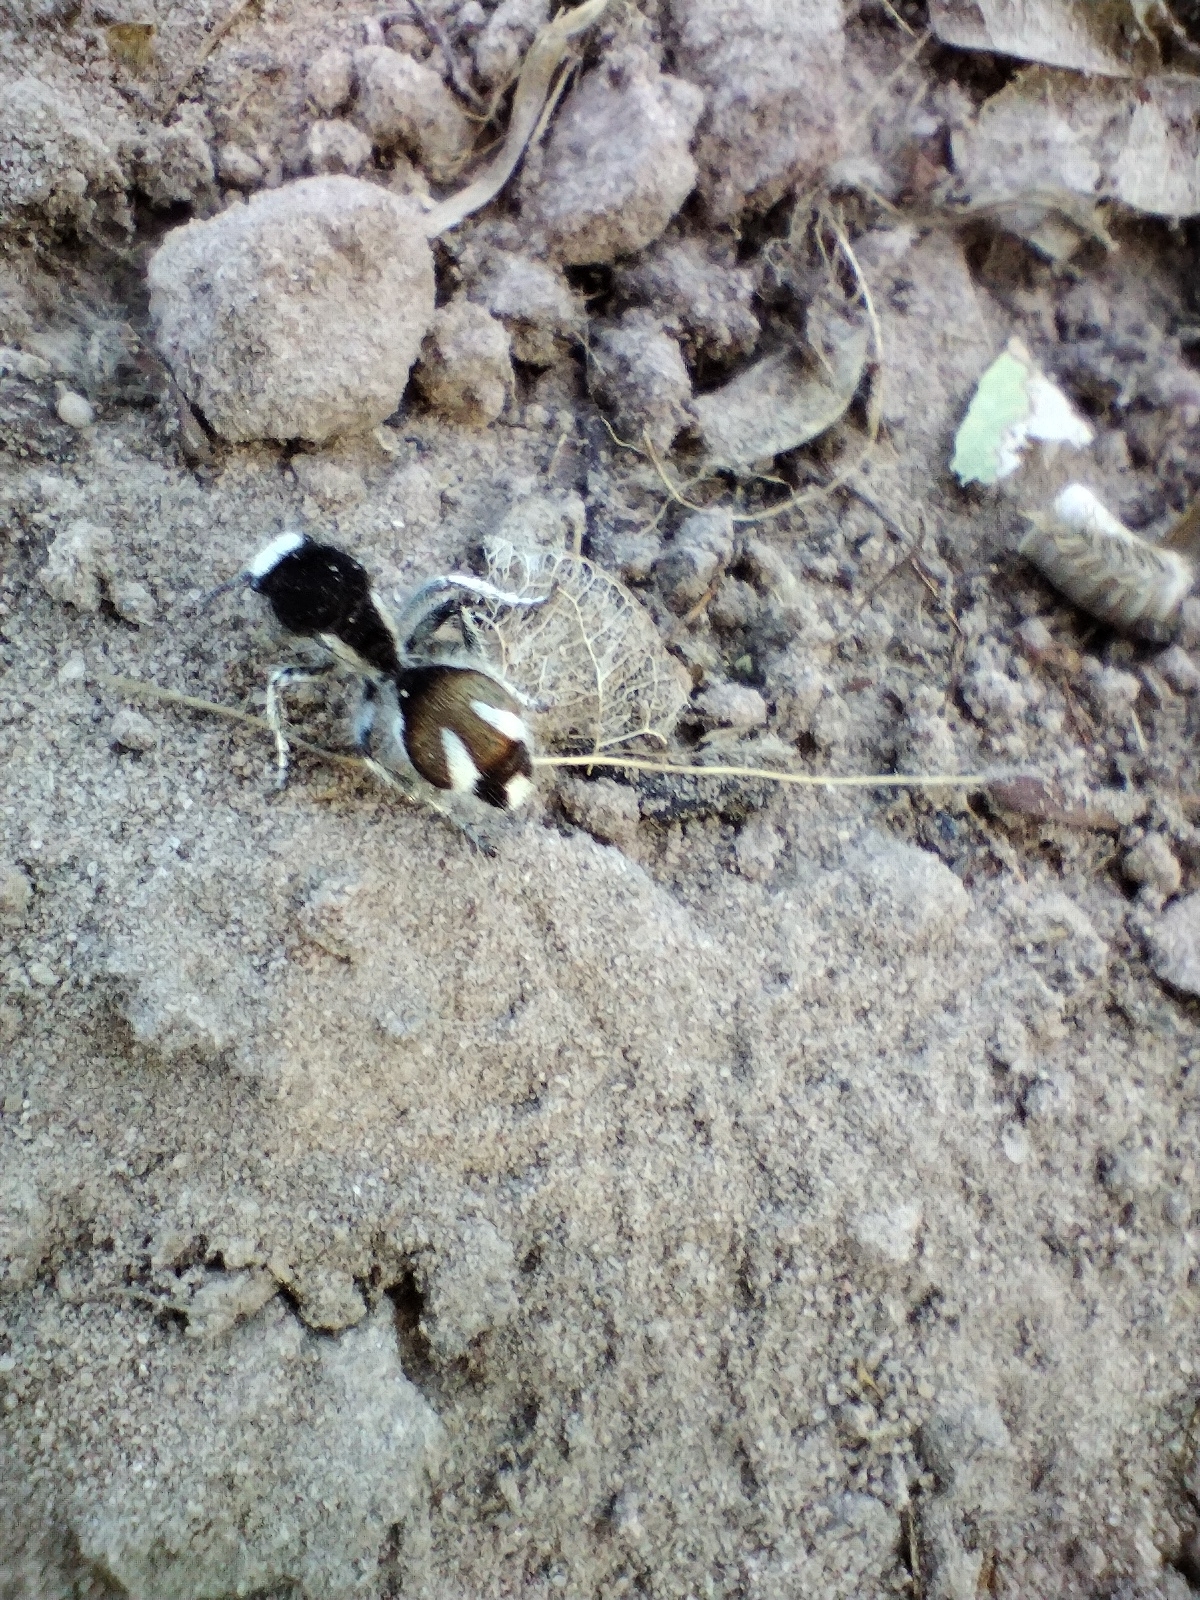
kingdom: Animalia
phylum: Arthropoda
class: Insecta
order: Hymenoptera
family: Mutillidae
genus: Traumatomutilla
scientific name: Traumatomutilla bifurca
